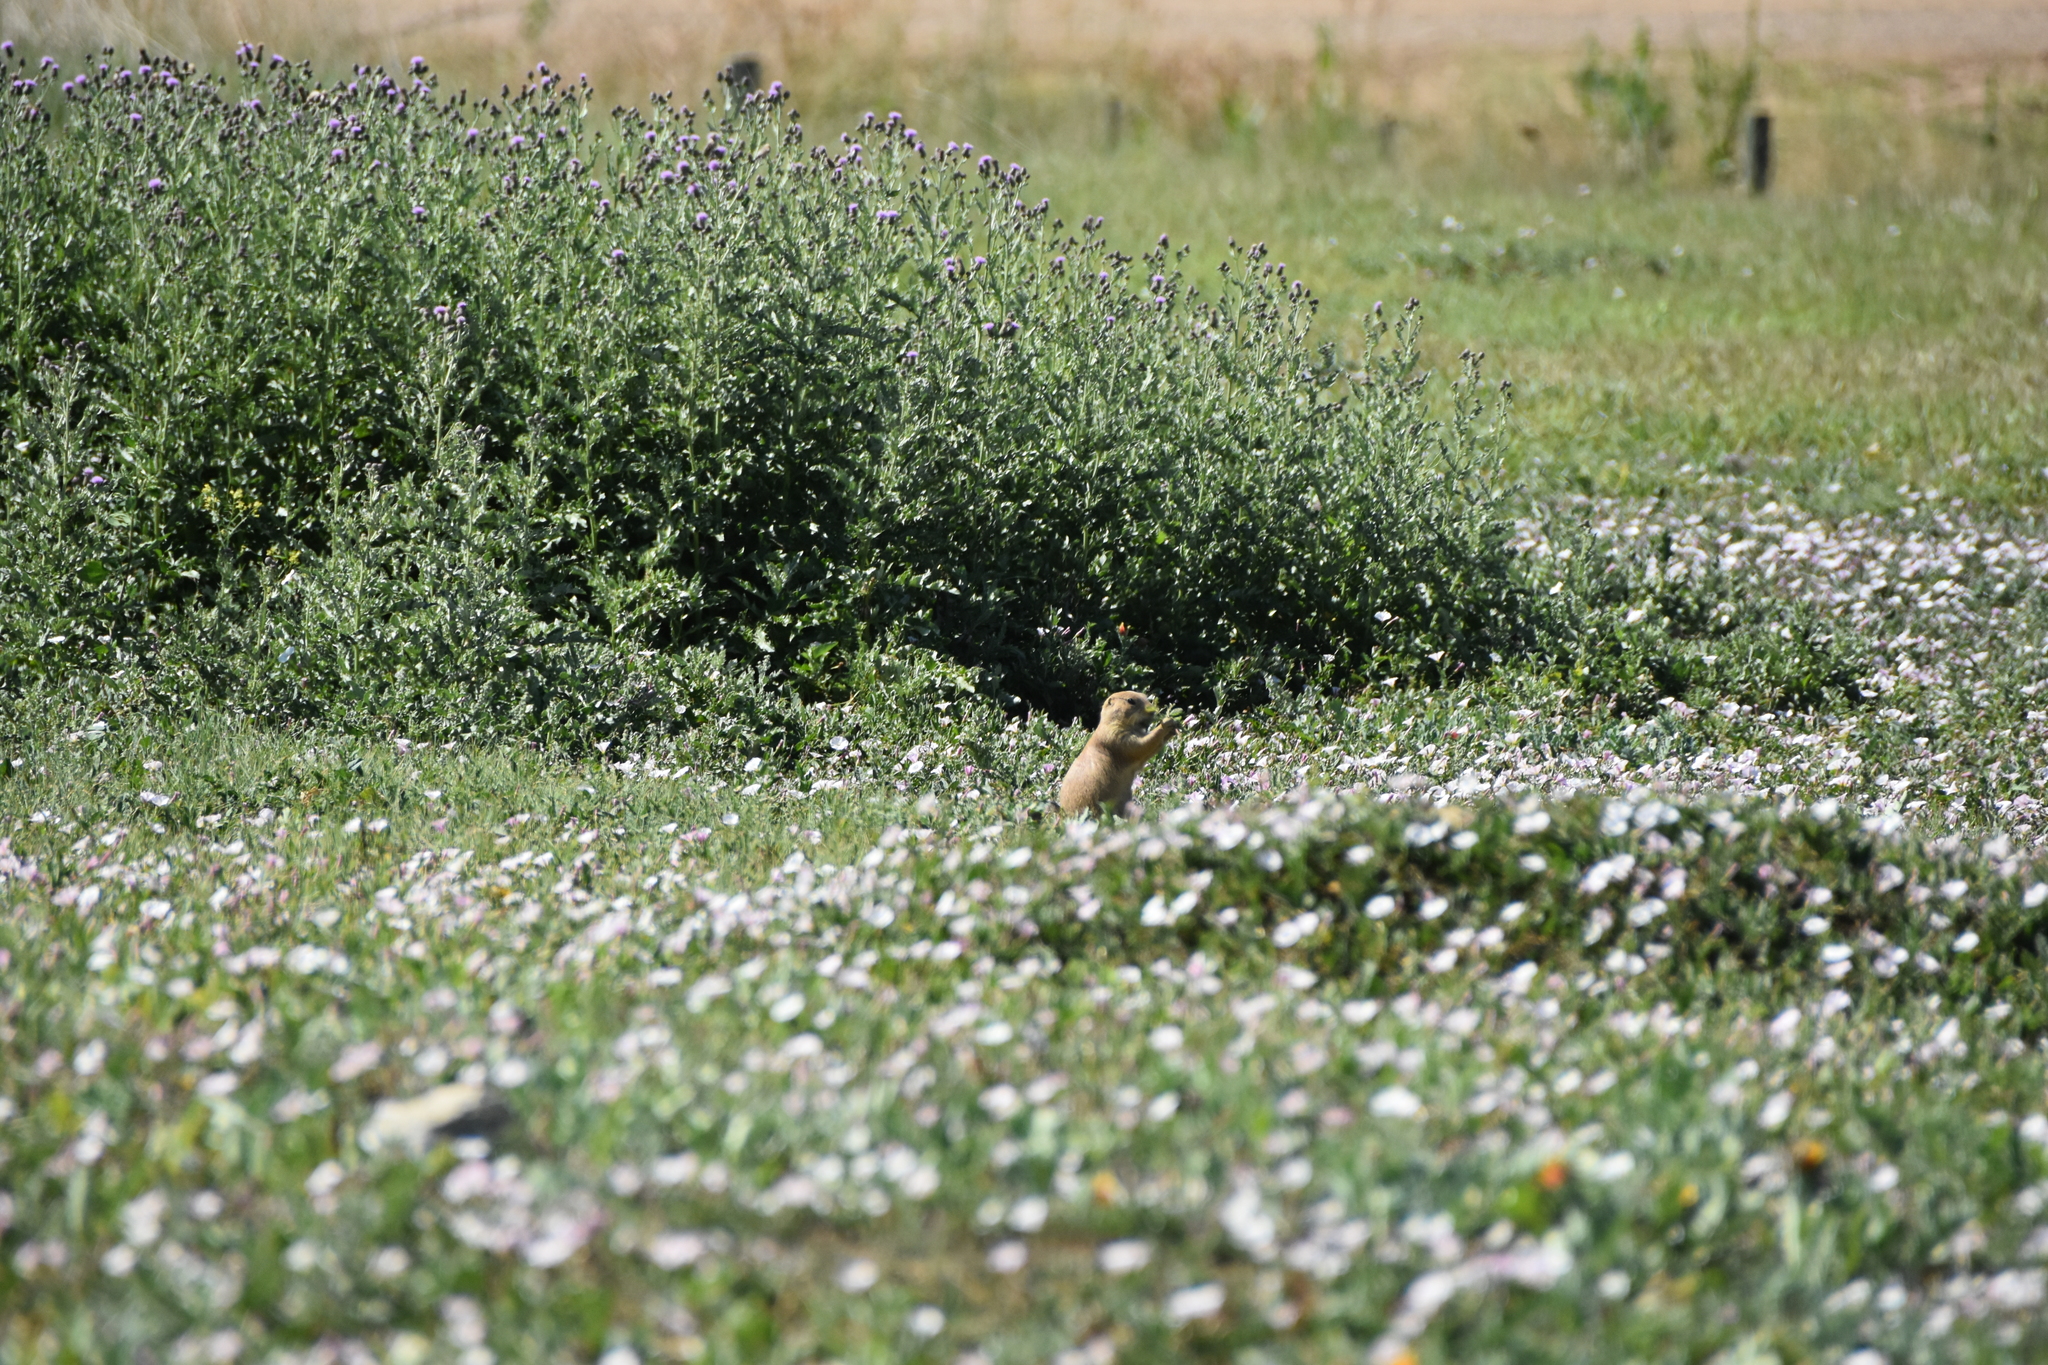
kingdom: Animalia
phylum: Chordata
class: Mammalia
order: Rodentia
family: Sciuridae
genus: Cynomys
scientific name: Cynomys ludovicianus
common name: Black-tailed prairie dog
